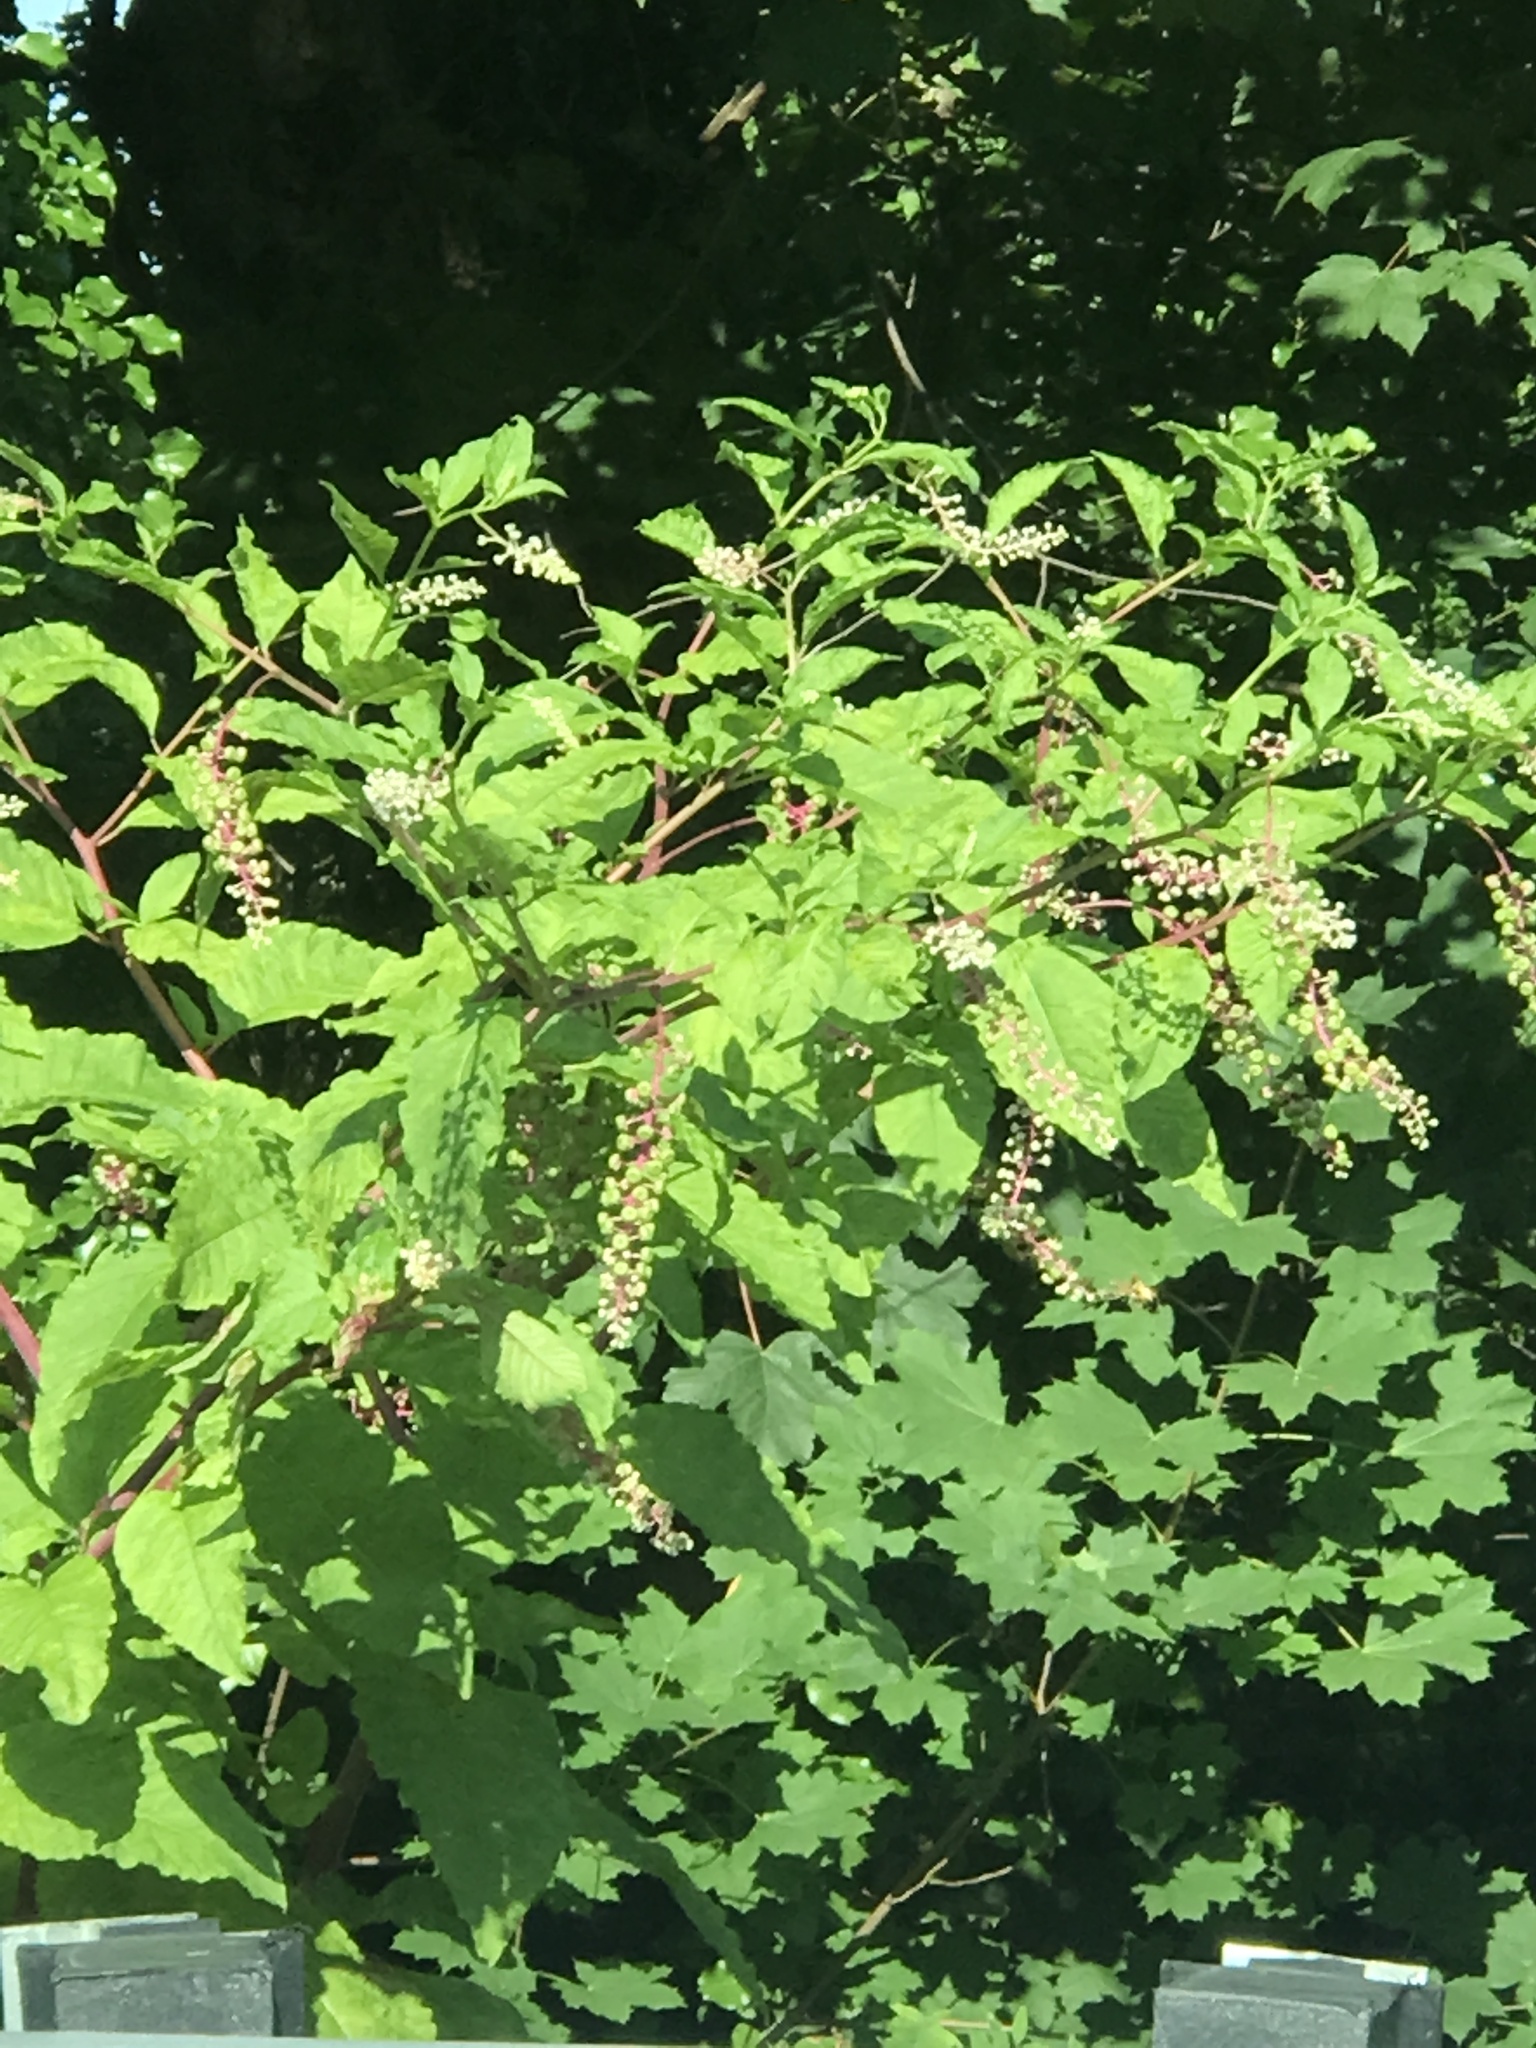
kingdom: Plantae
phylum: Tracheophyta
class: Magnoliopsida
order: Caryophyllales
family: Phytolaccaceae
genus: Phytolacca
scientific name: Phytolacca americana
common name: American pokeweed
